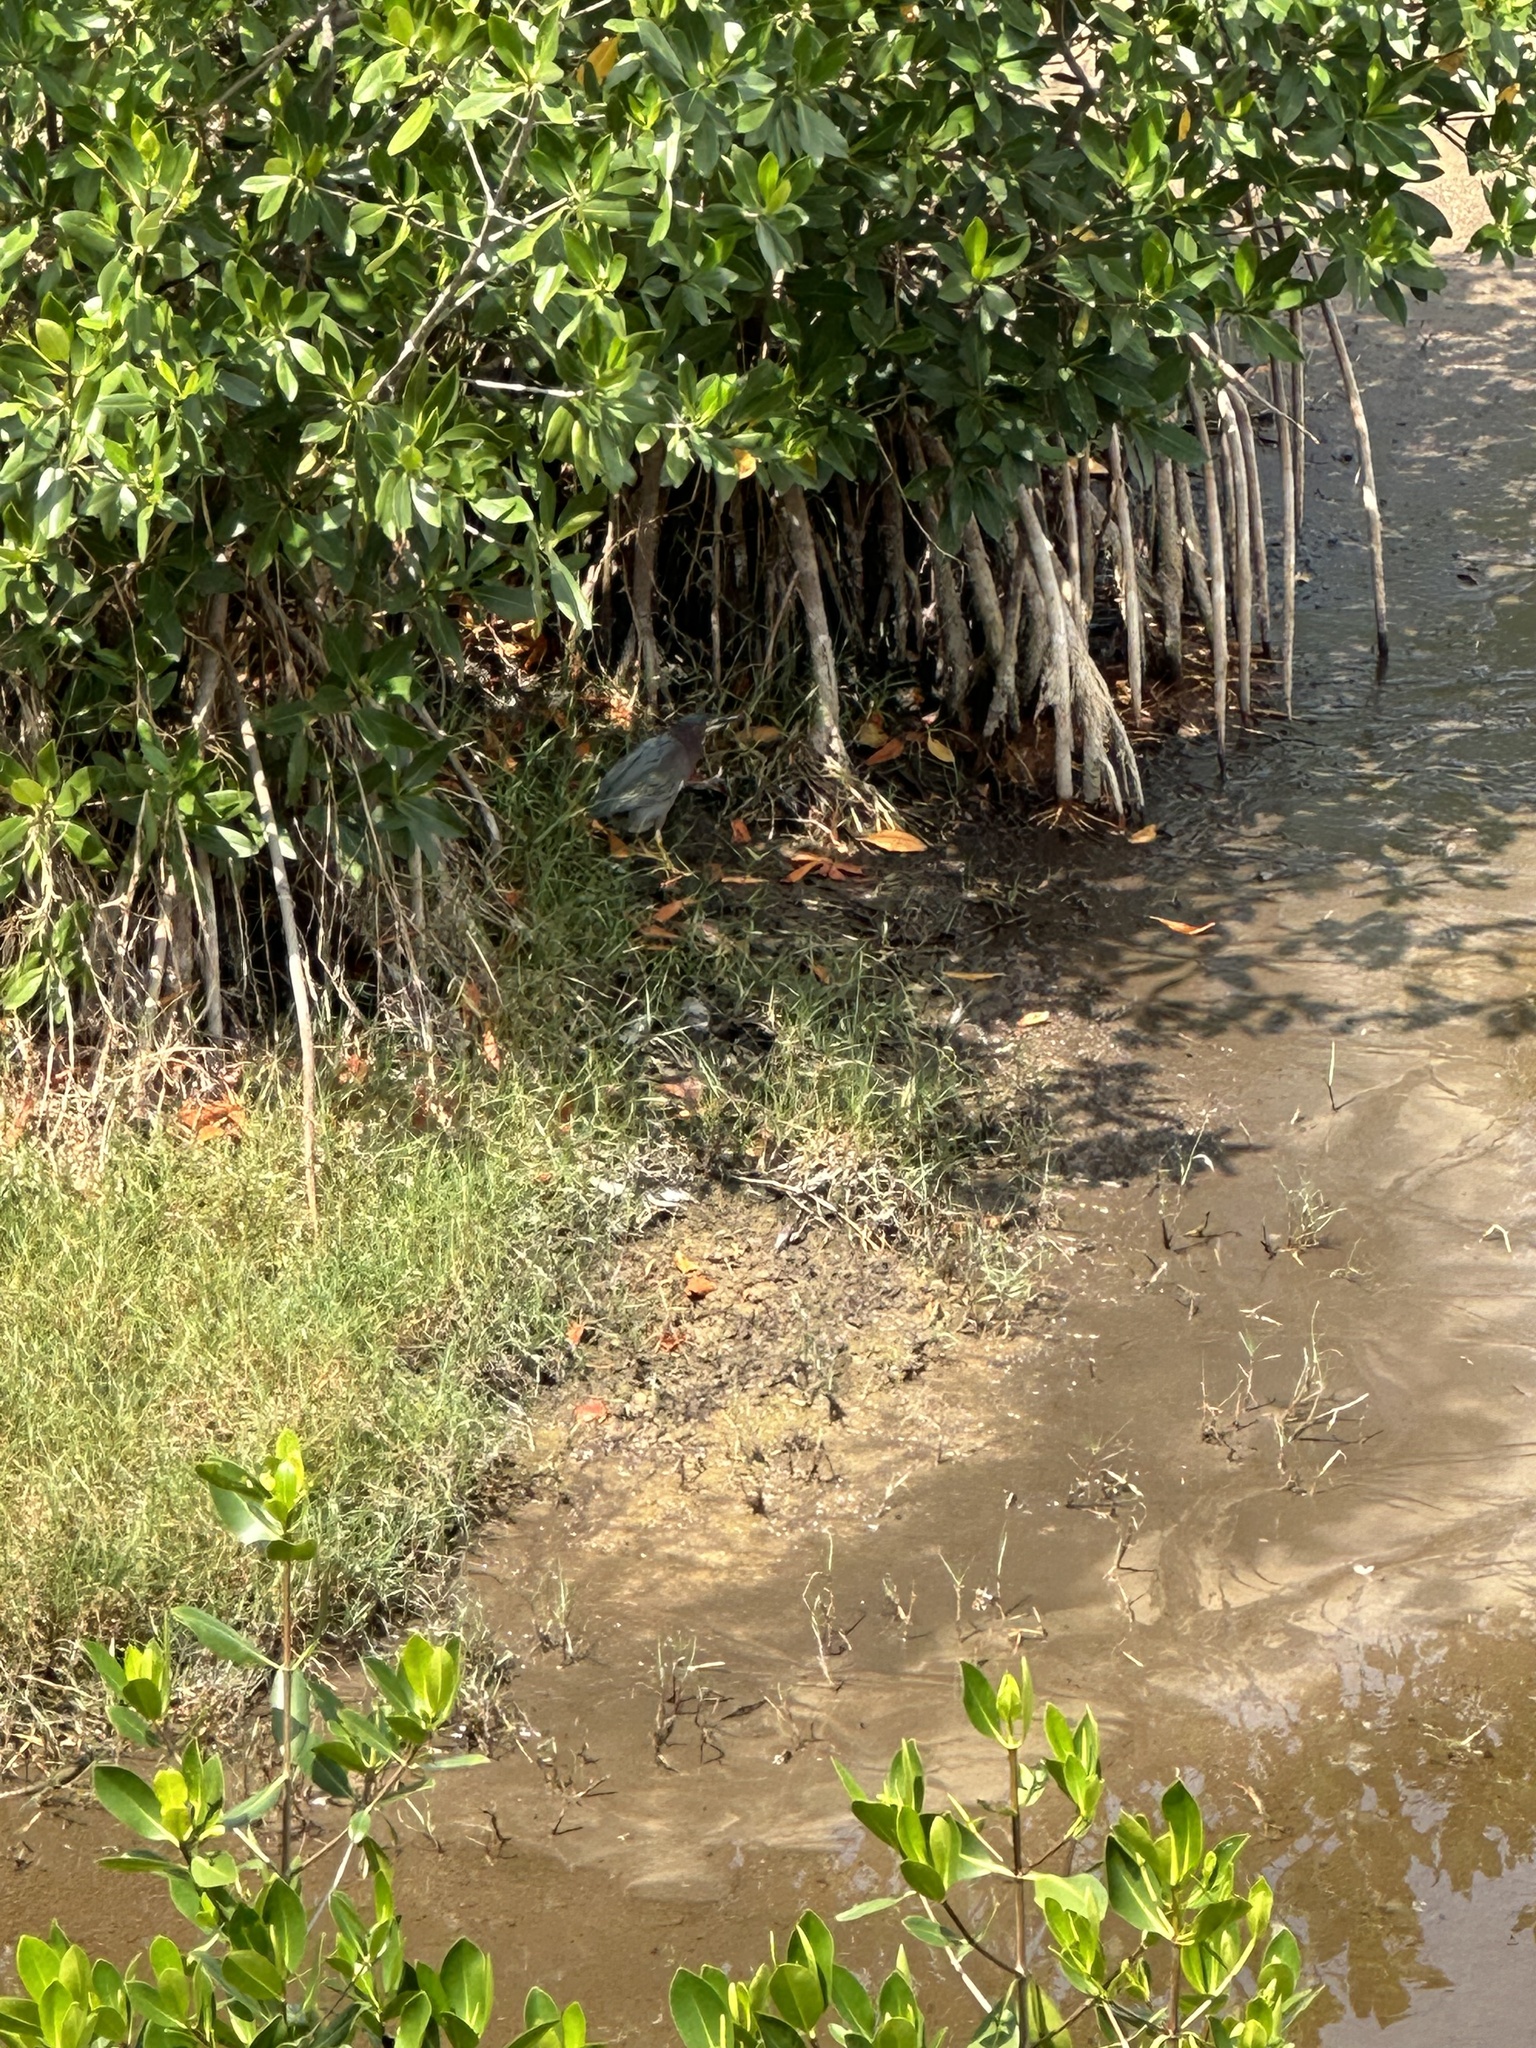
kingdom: Animalia
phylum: Chordata
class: Aves
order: Pelecaniformes
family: Ardeidae
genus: Butorides
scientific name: Butorides virescens
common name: Green heron
